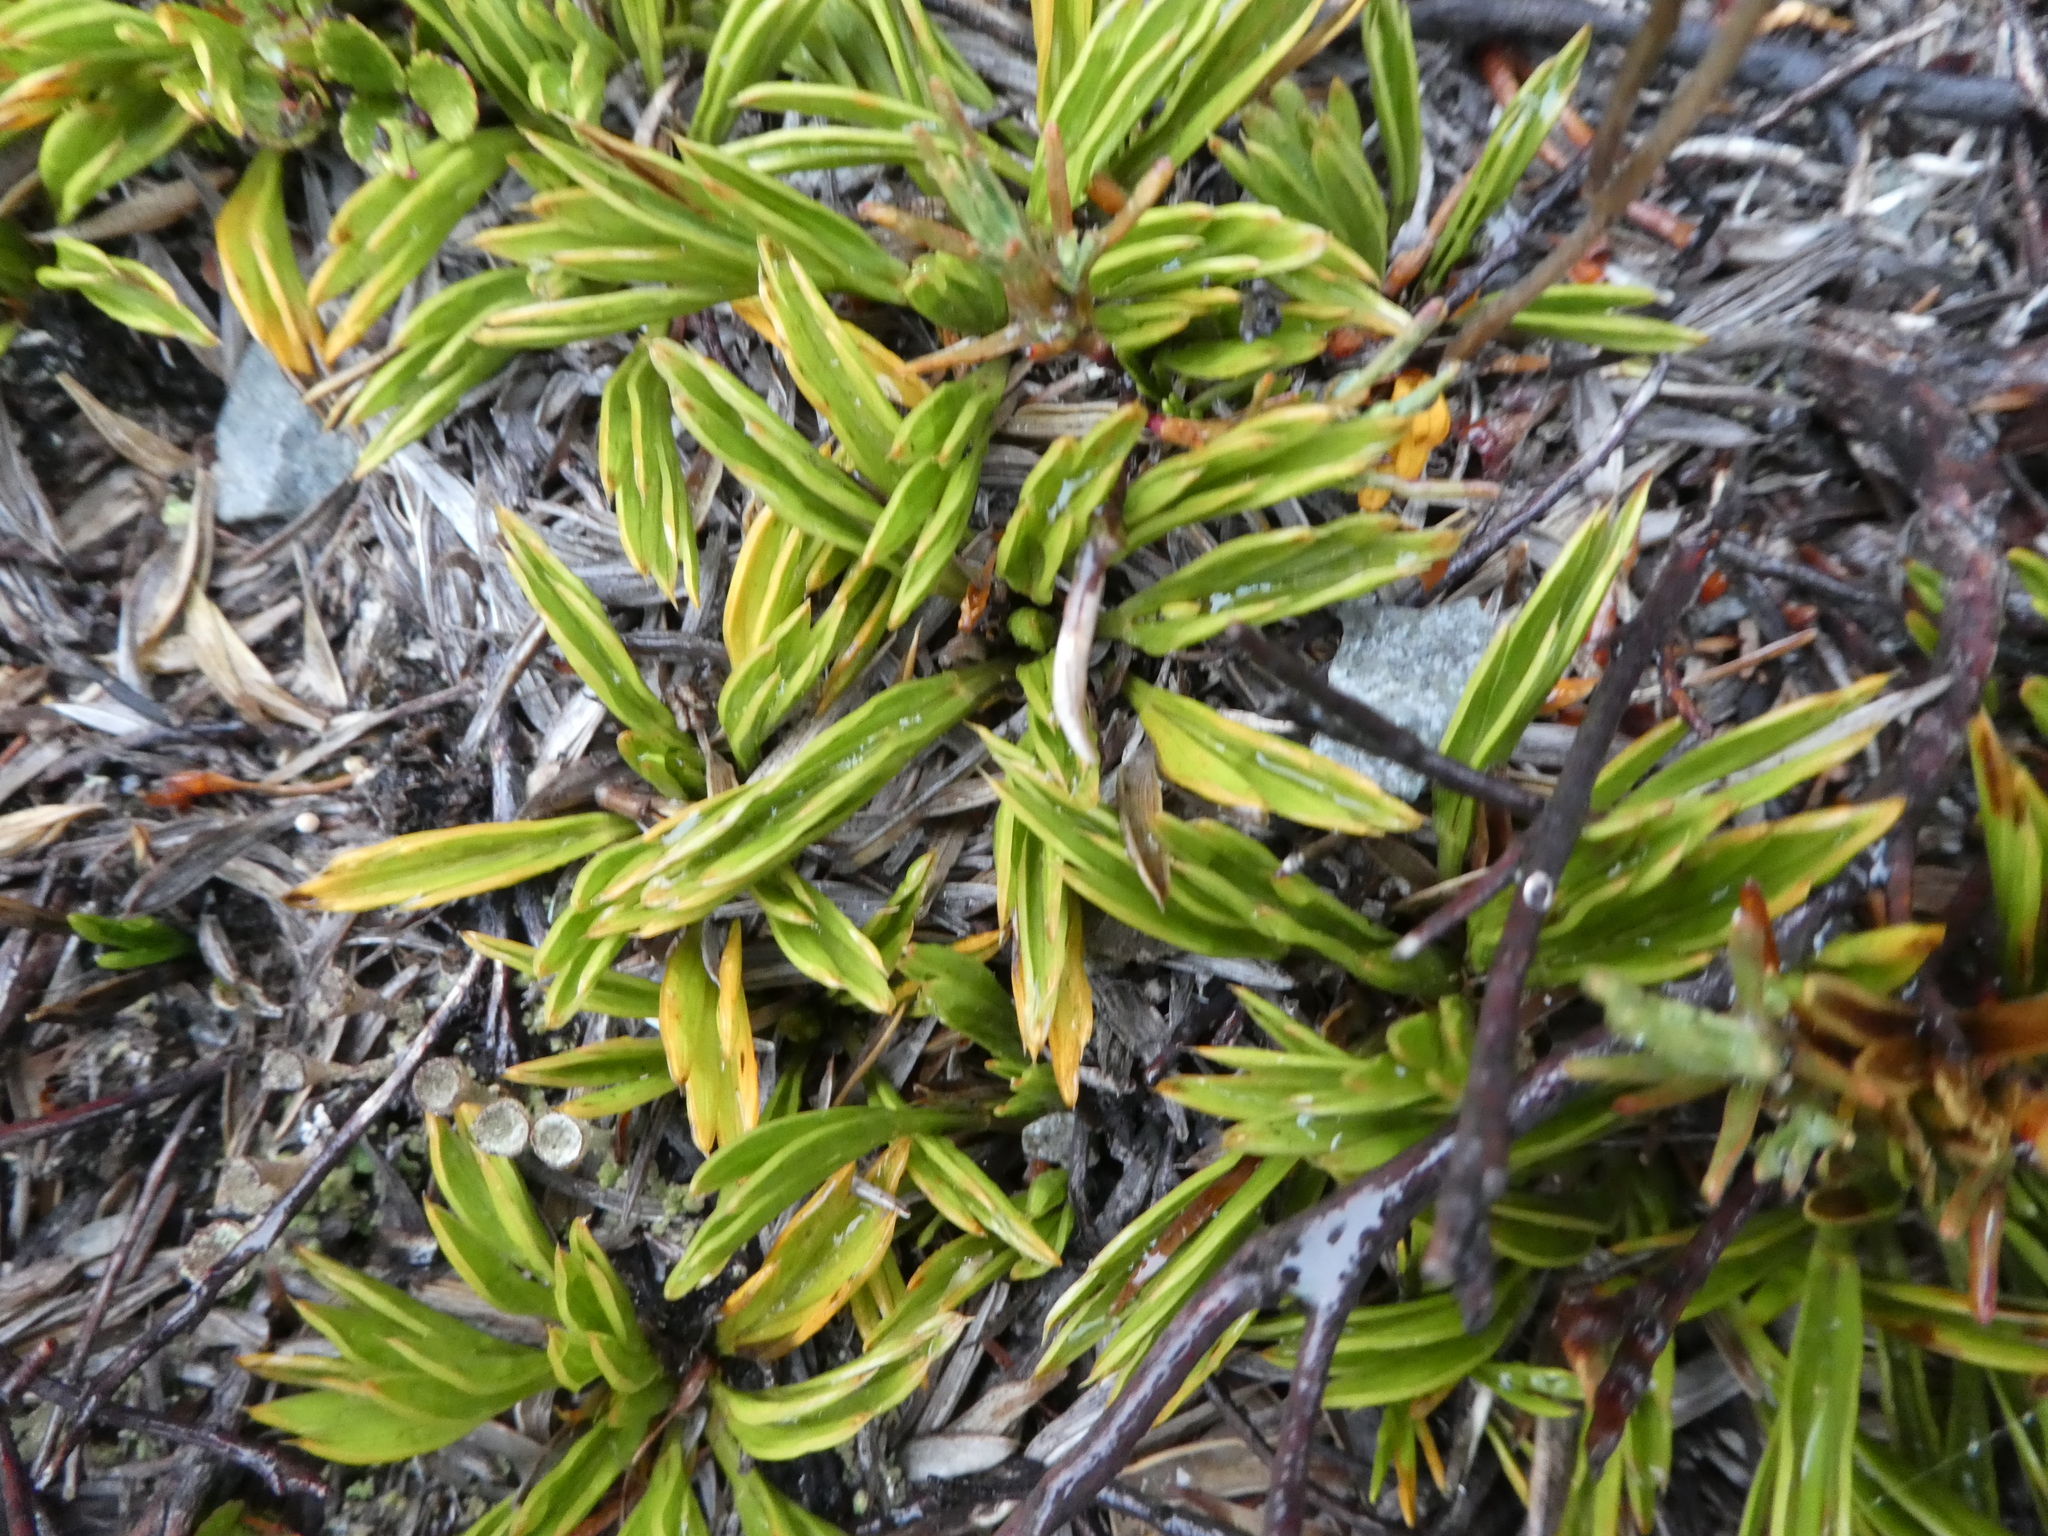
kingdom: Plantae
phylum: Tracheophyta
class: Magnoliopsida
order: Apiales
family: Apiaceae
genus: Aciphylla
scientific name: Aciphylla monroi
